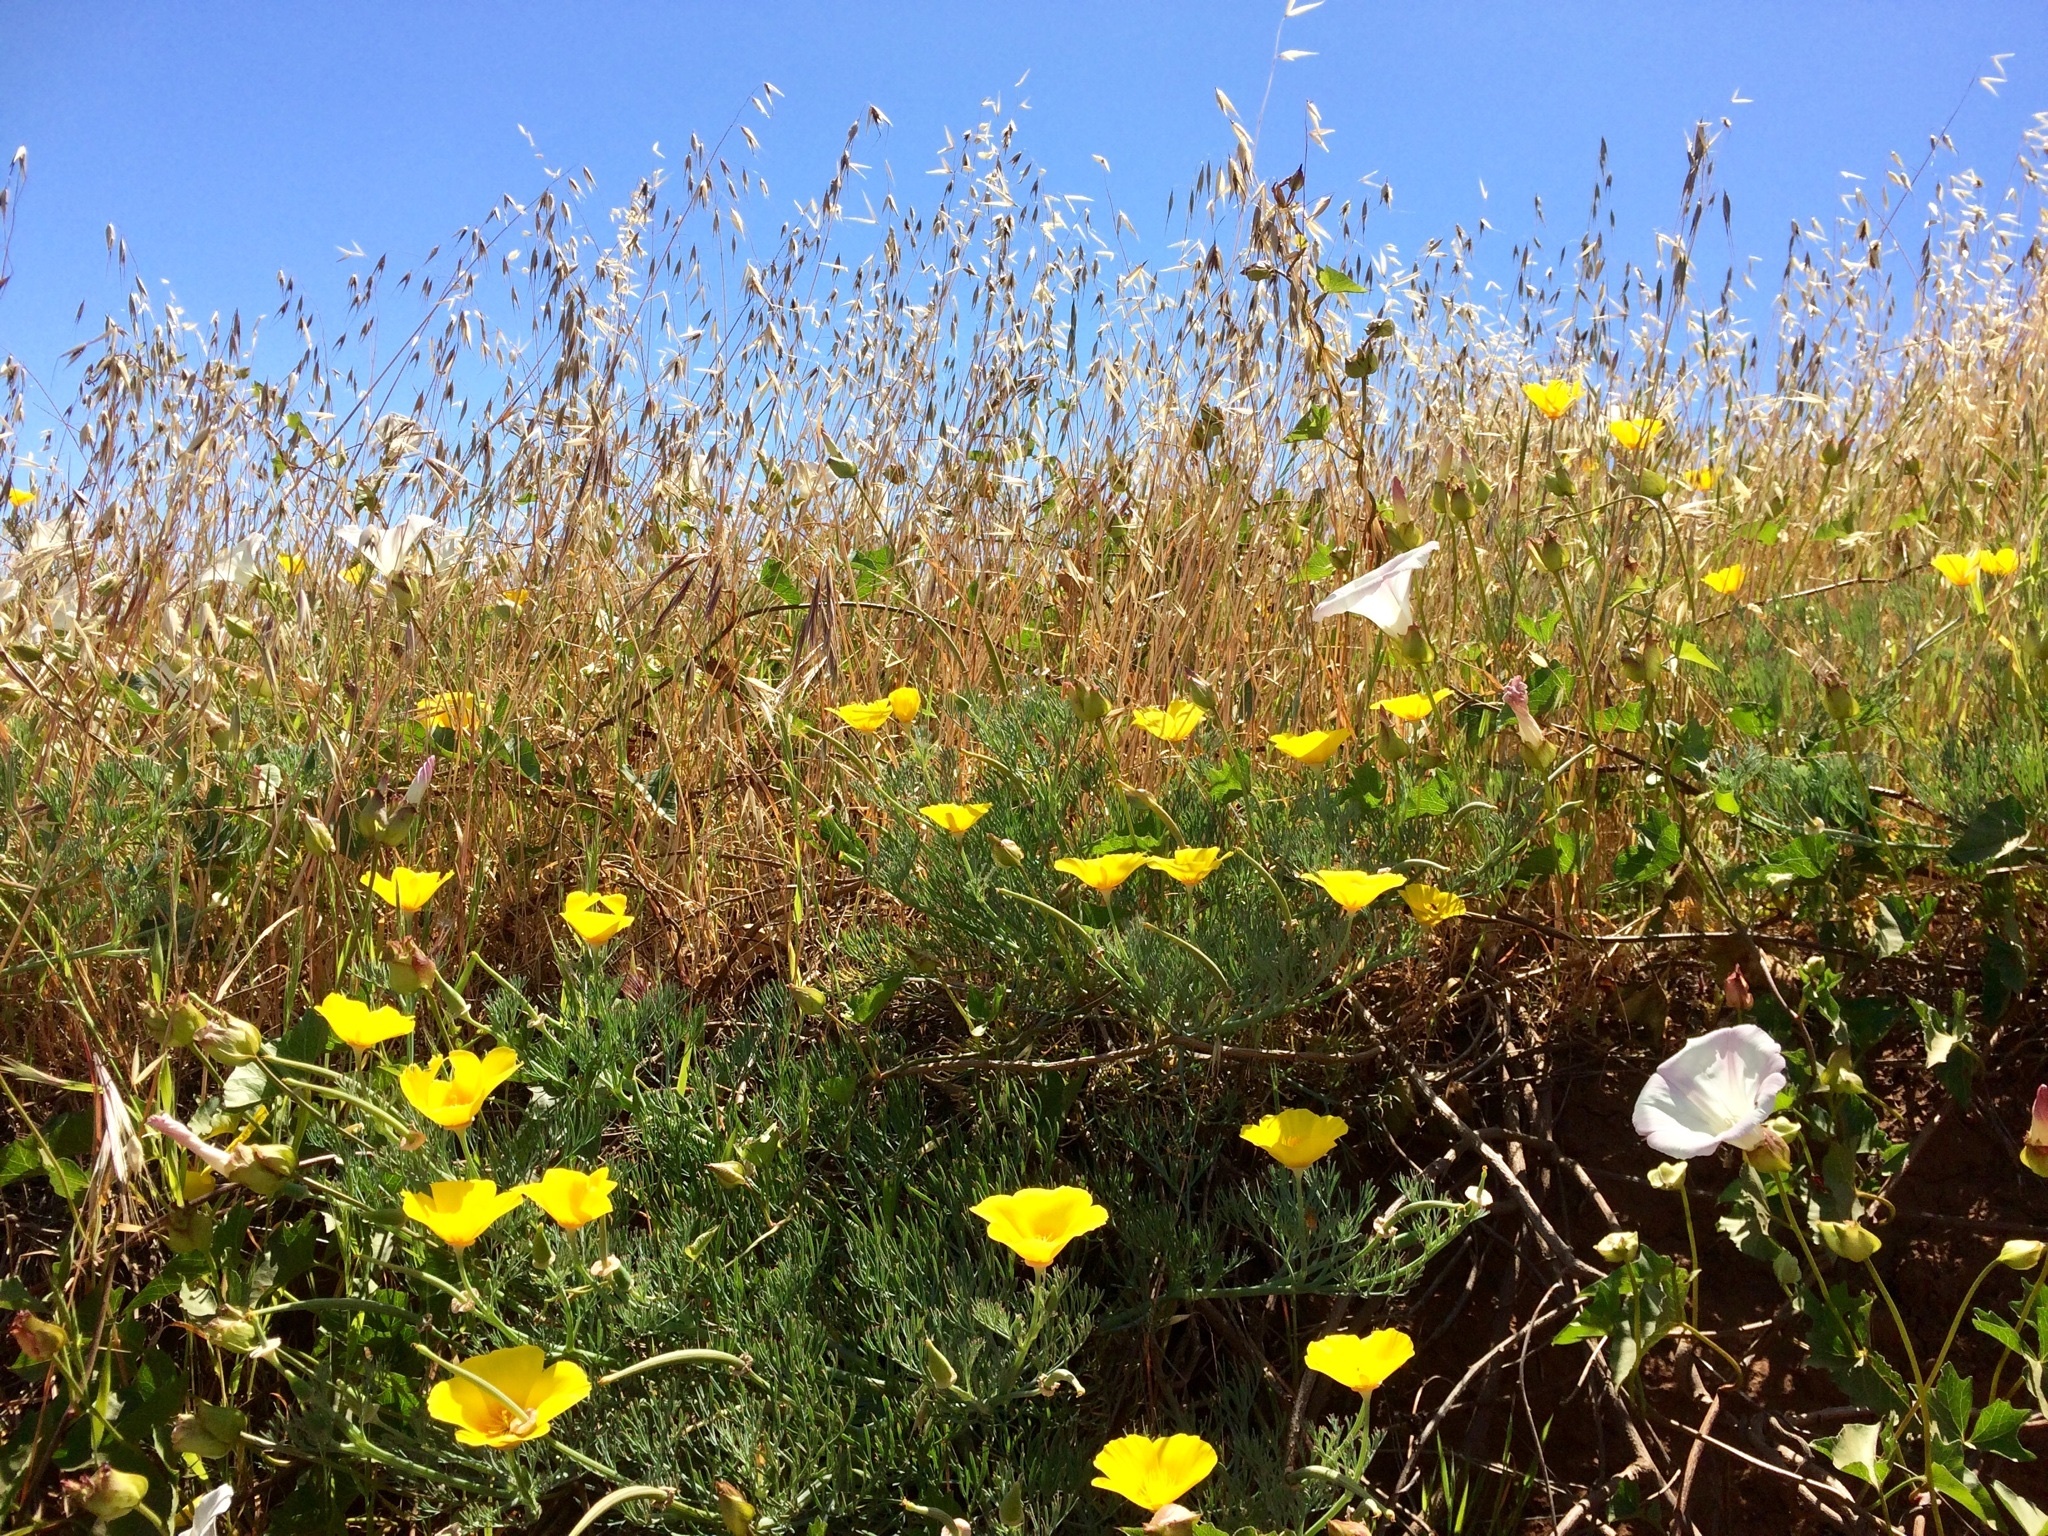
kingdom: Plantae
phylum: Tracheophyta
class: Magnoliopsida
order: Ranunculales
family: Papaveraceae
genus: Eschscholzia
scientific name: Eschscholzia californica
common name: California poppy
